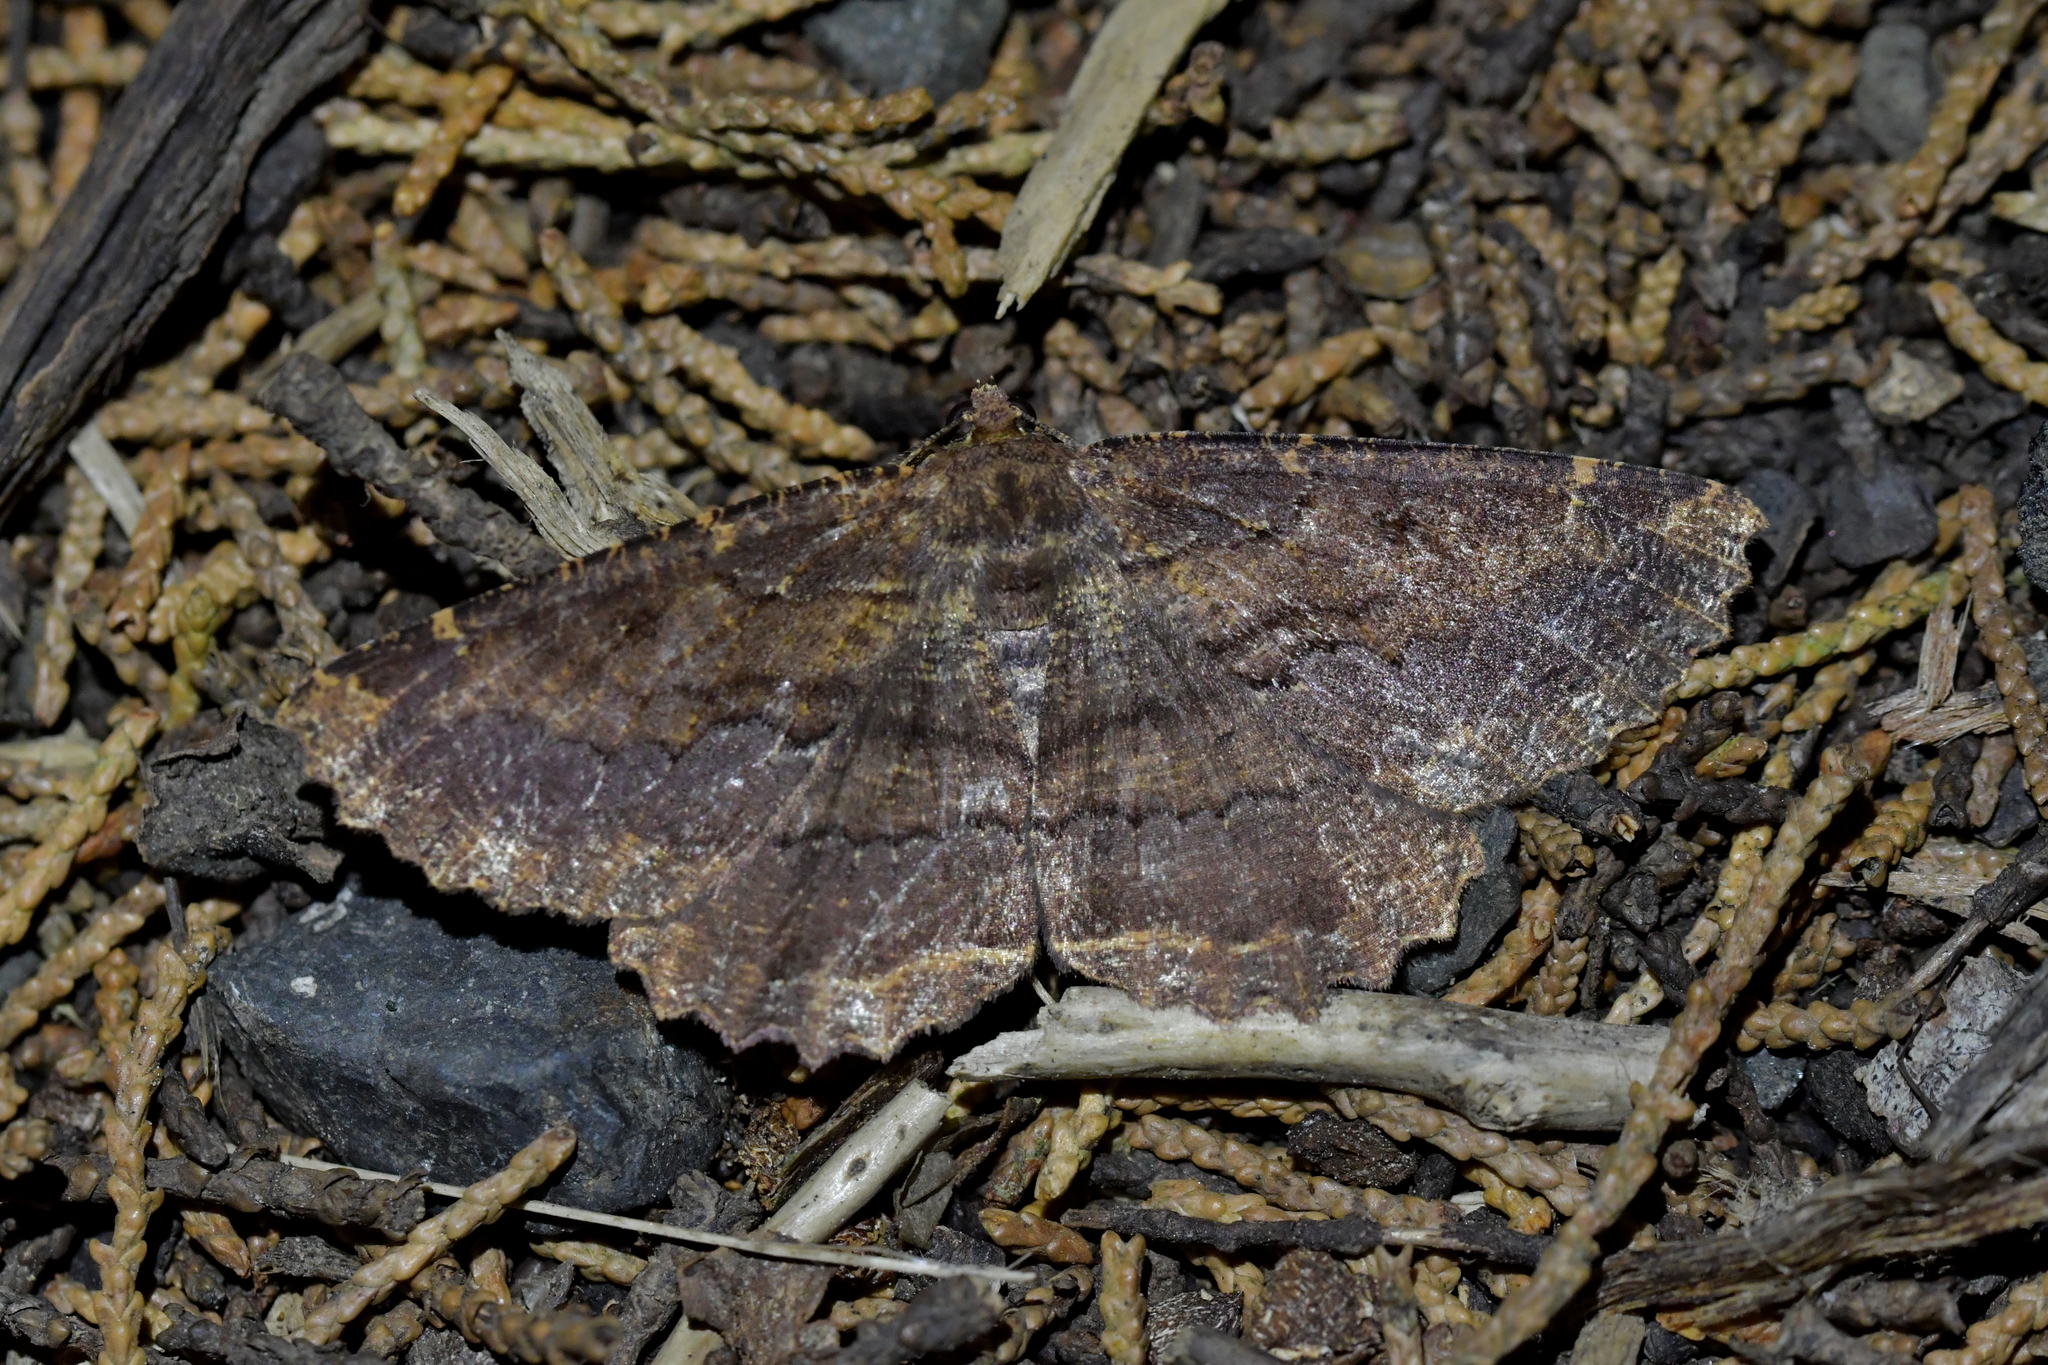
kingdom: Animalia
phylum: Arthropoda
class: Insecta
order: Lepidoptera
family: Geometridae
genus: Gellonia
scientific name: Gellonia dejectaria
